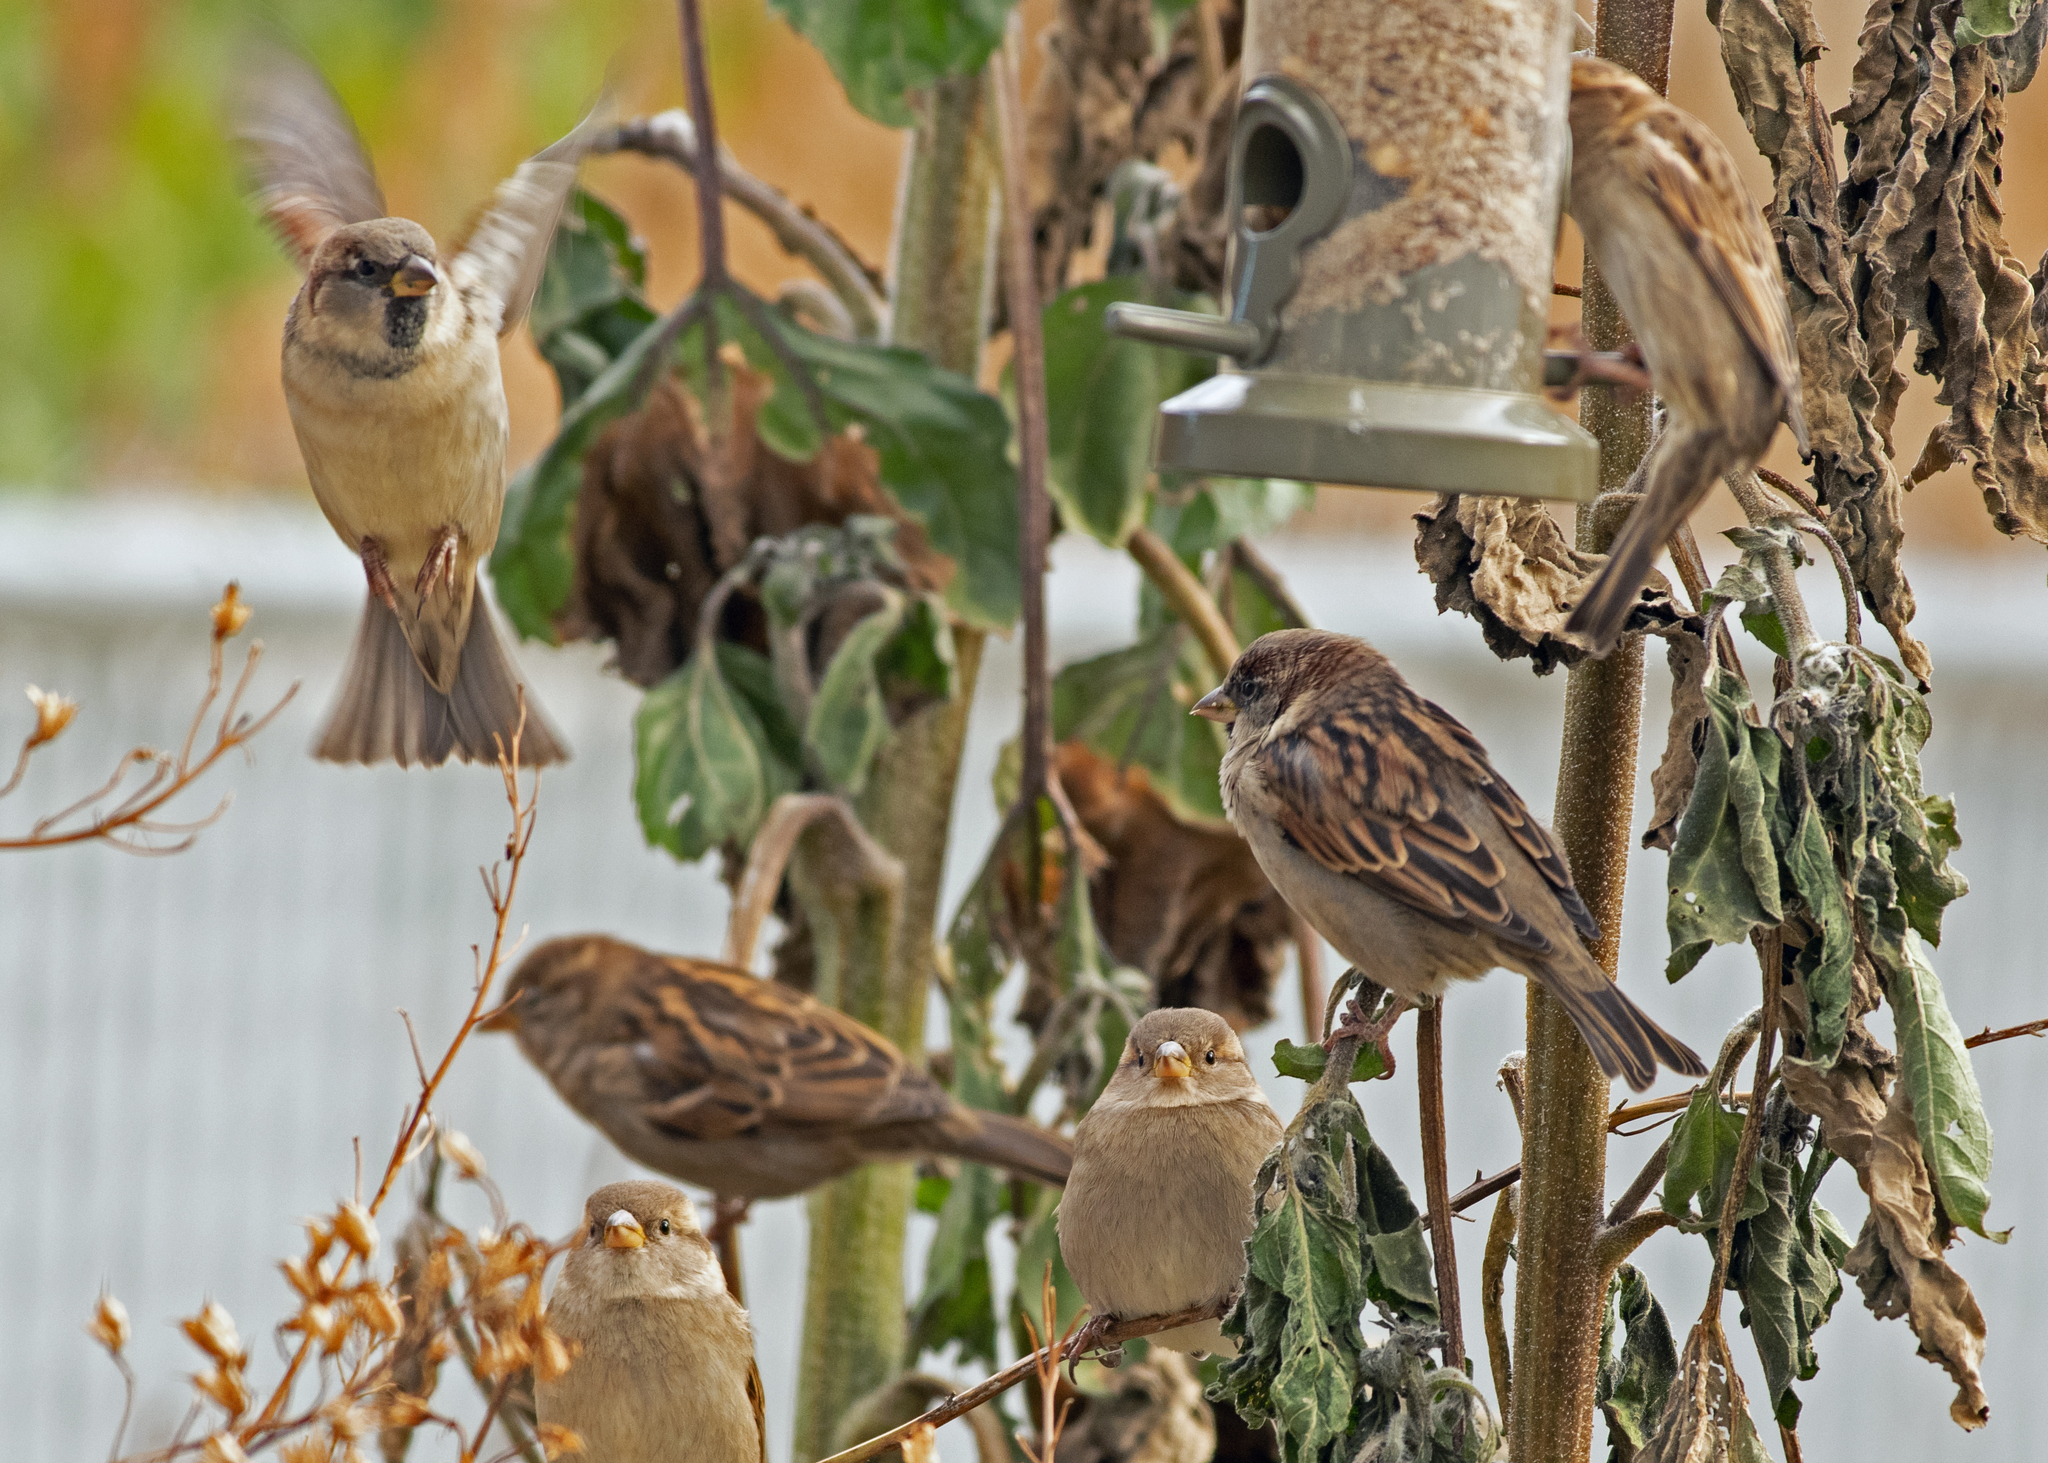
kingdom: Animalia
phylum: Chordata
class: Aves
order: Passeriformes
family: Passeridae
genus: Passer
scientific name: Passer domesticus
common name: House sparrow
